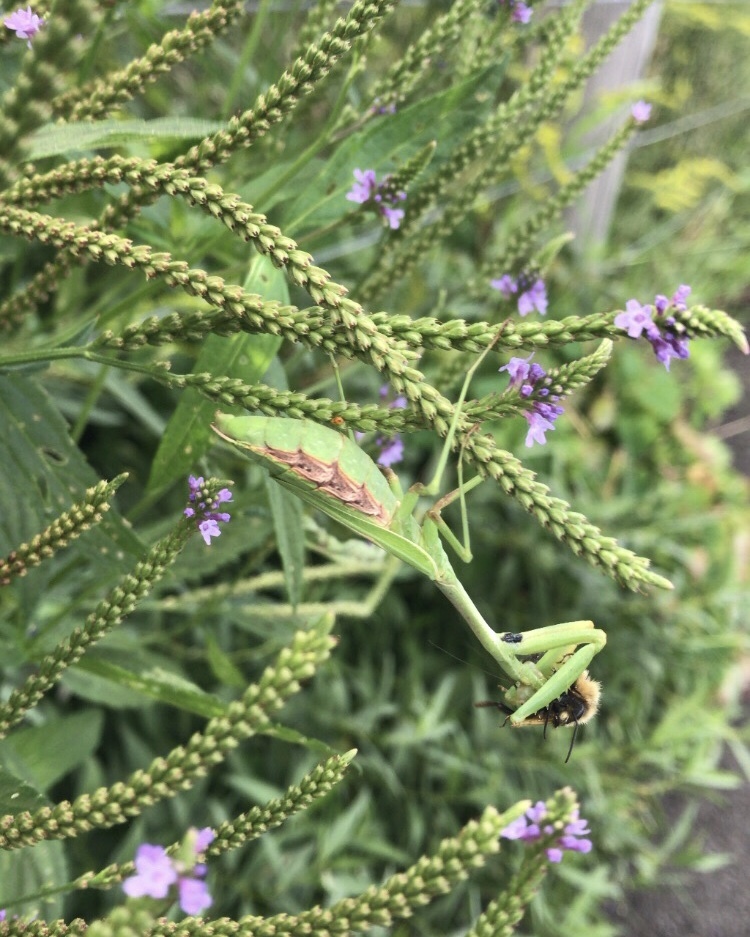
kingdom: Animalia
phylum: Arthropoda
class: Insecta
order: Mantodea
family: Mantidae
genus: Mantis
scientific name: Mantis religiosa
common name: Praying mantis
